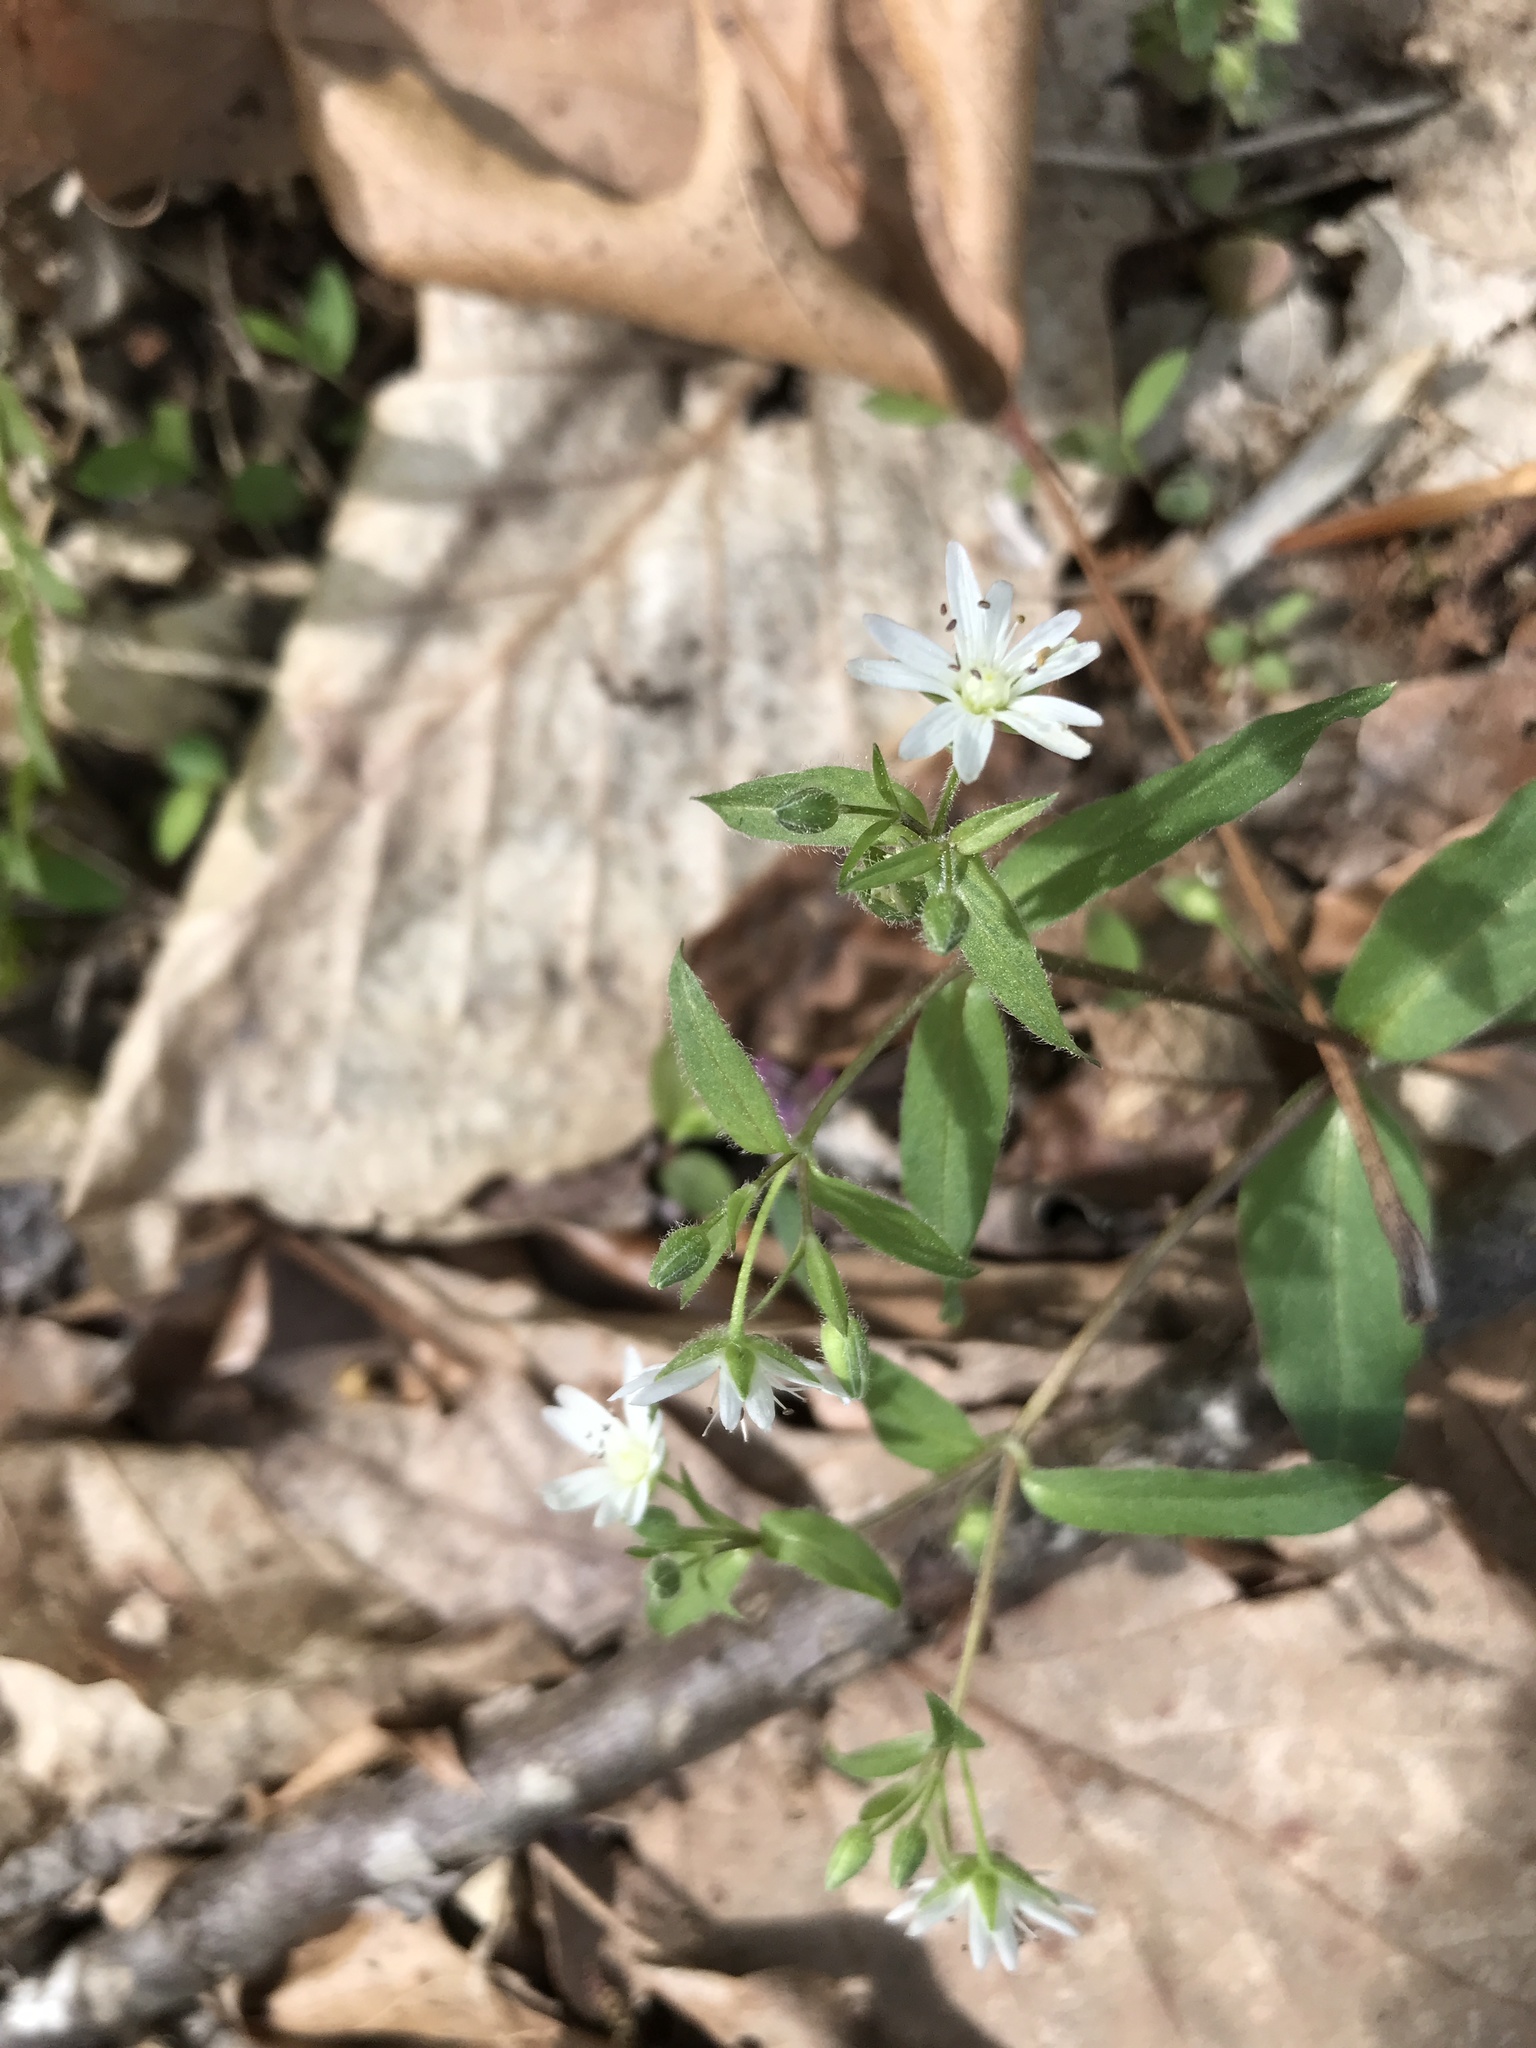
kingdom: Plantae
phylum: Tracheophyta
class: Magnoliopsida
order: Caryophyllales
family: Caryophyllaceae
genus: Stellaria
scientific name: Stellaria pubera
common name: Star chickweed
